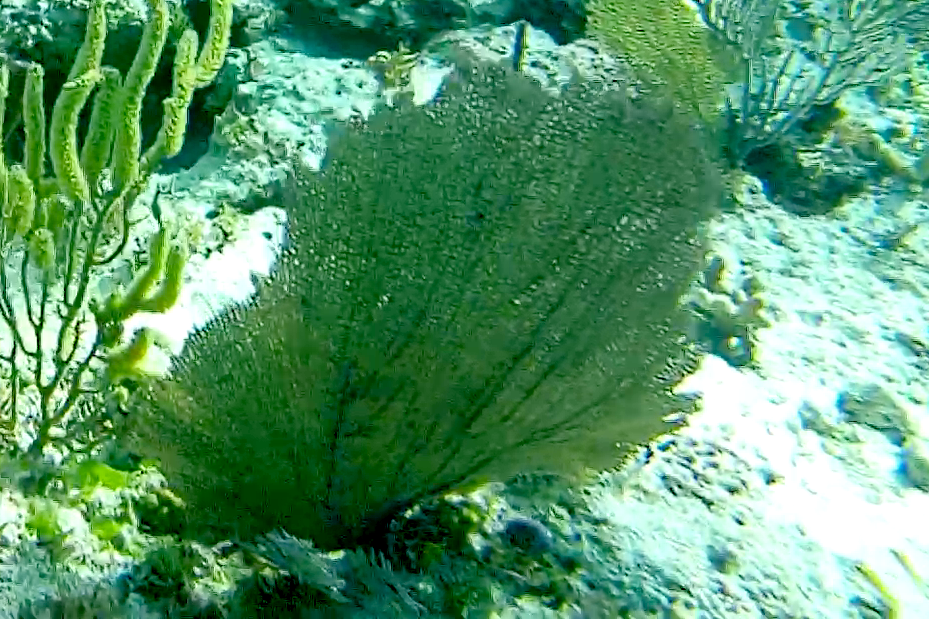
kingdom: Animalia
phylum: Cnidaria
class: Anthozoa
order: Malacalcyonacea
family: Gorgoniidae
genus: Gorgonia
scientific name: Gorgonia ventalina
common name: Common sea fan
